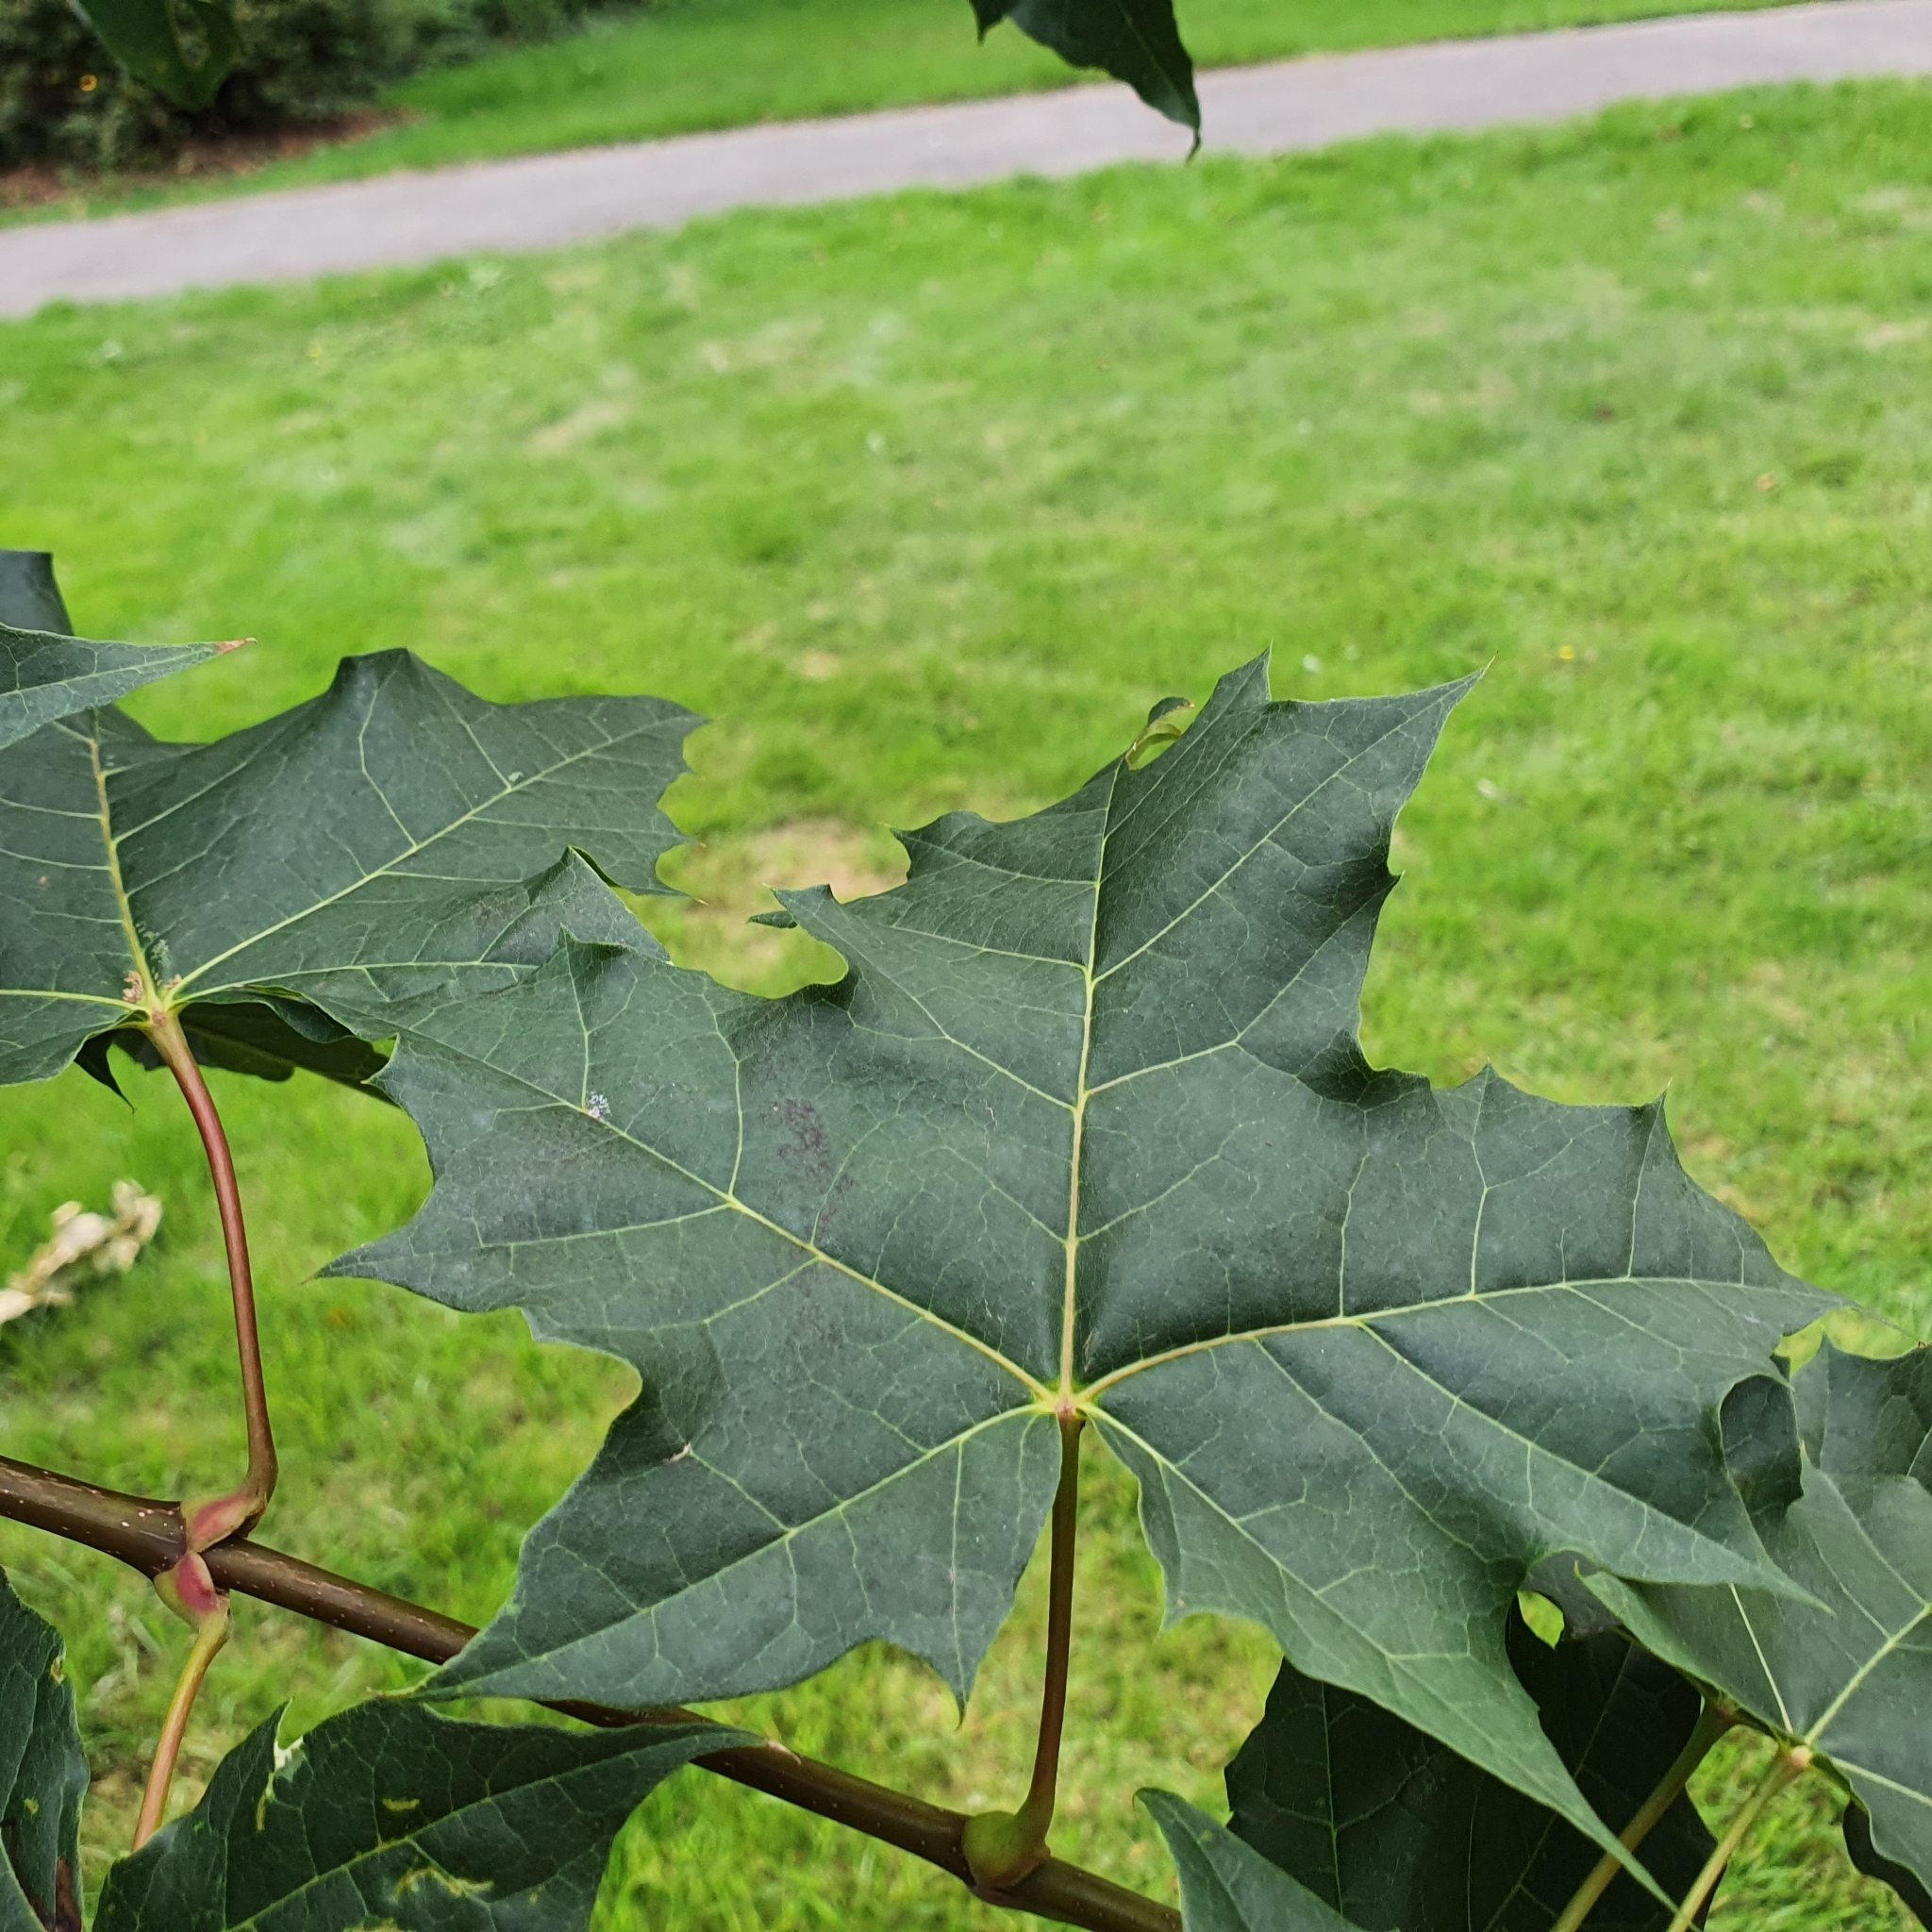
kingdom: Plantae
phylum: Tracheophyta
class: Magnoliopsida
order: Sapindales
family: Sapindaceae
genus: Acer
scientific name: Acer platanoides
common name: Norway maple
